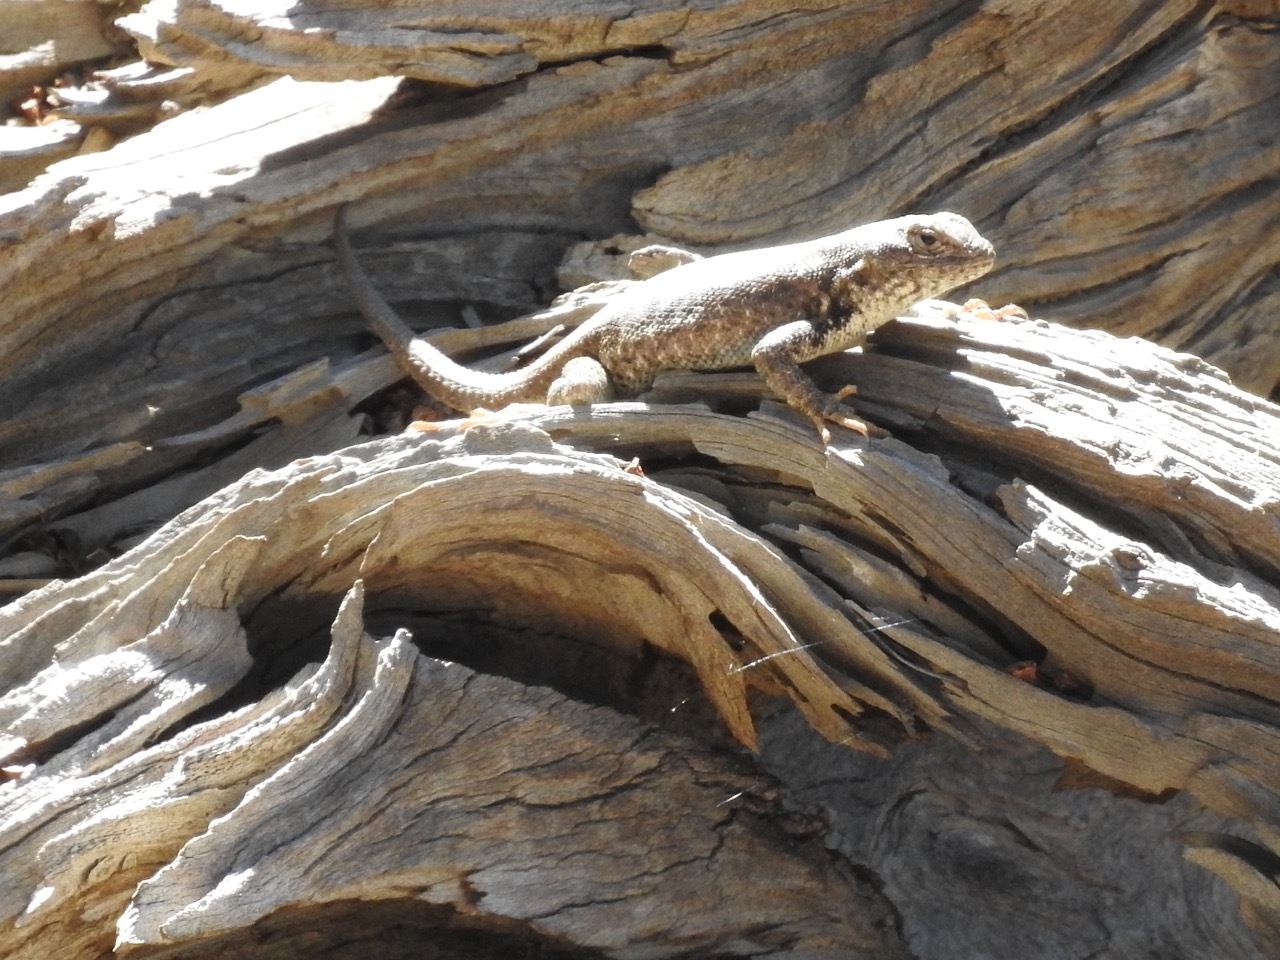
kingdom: Animalia
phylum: Chordata
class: Squamata
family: Phrynosomatidae
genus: Sceloporus
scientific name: Sceloporus graciosus
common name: Sagebrush lizard
